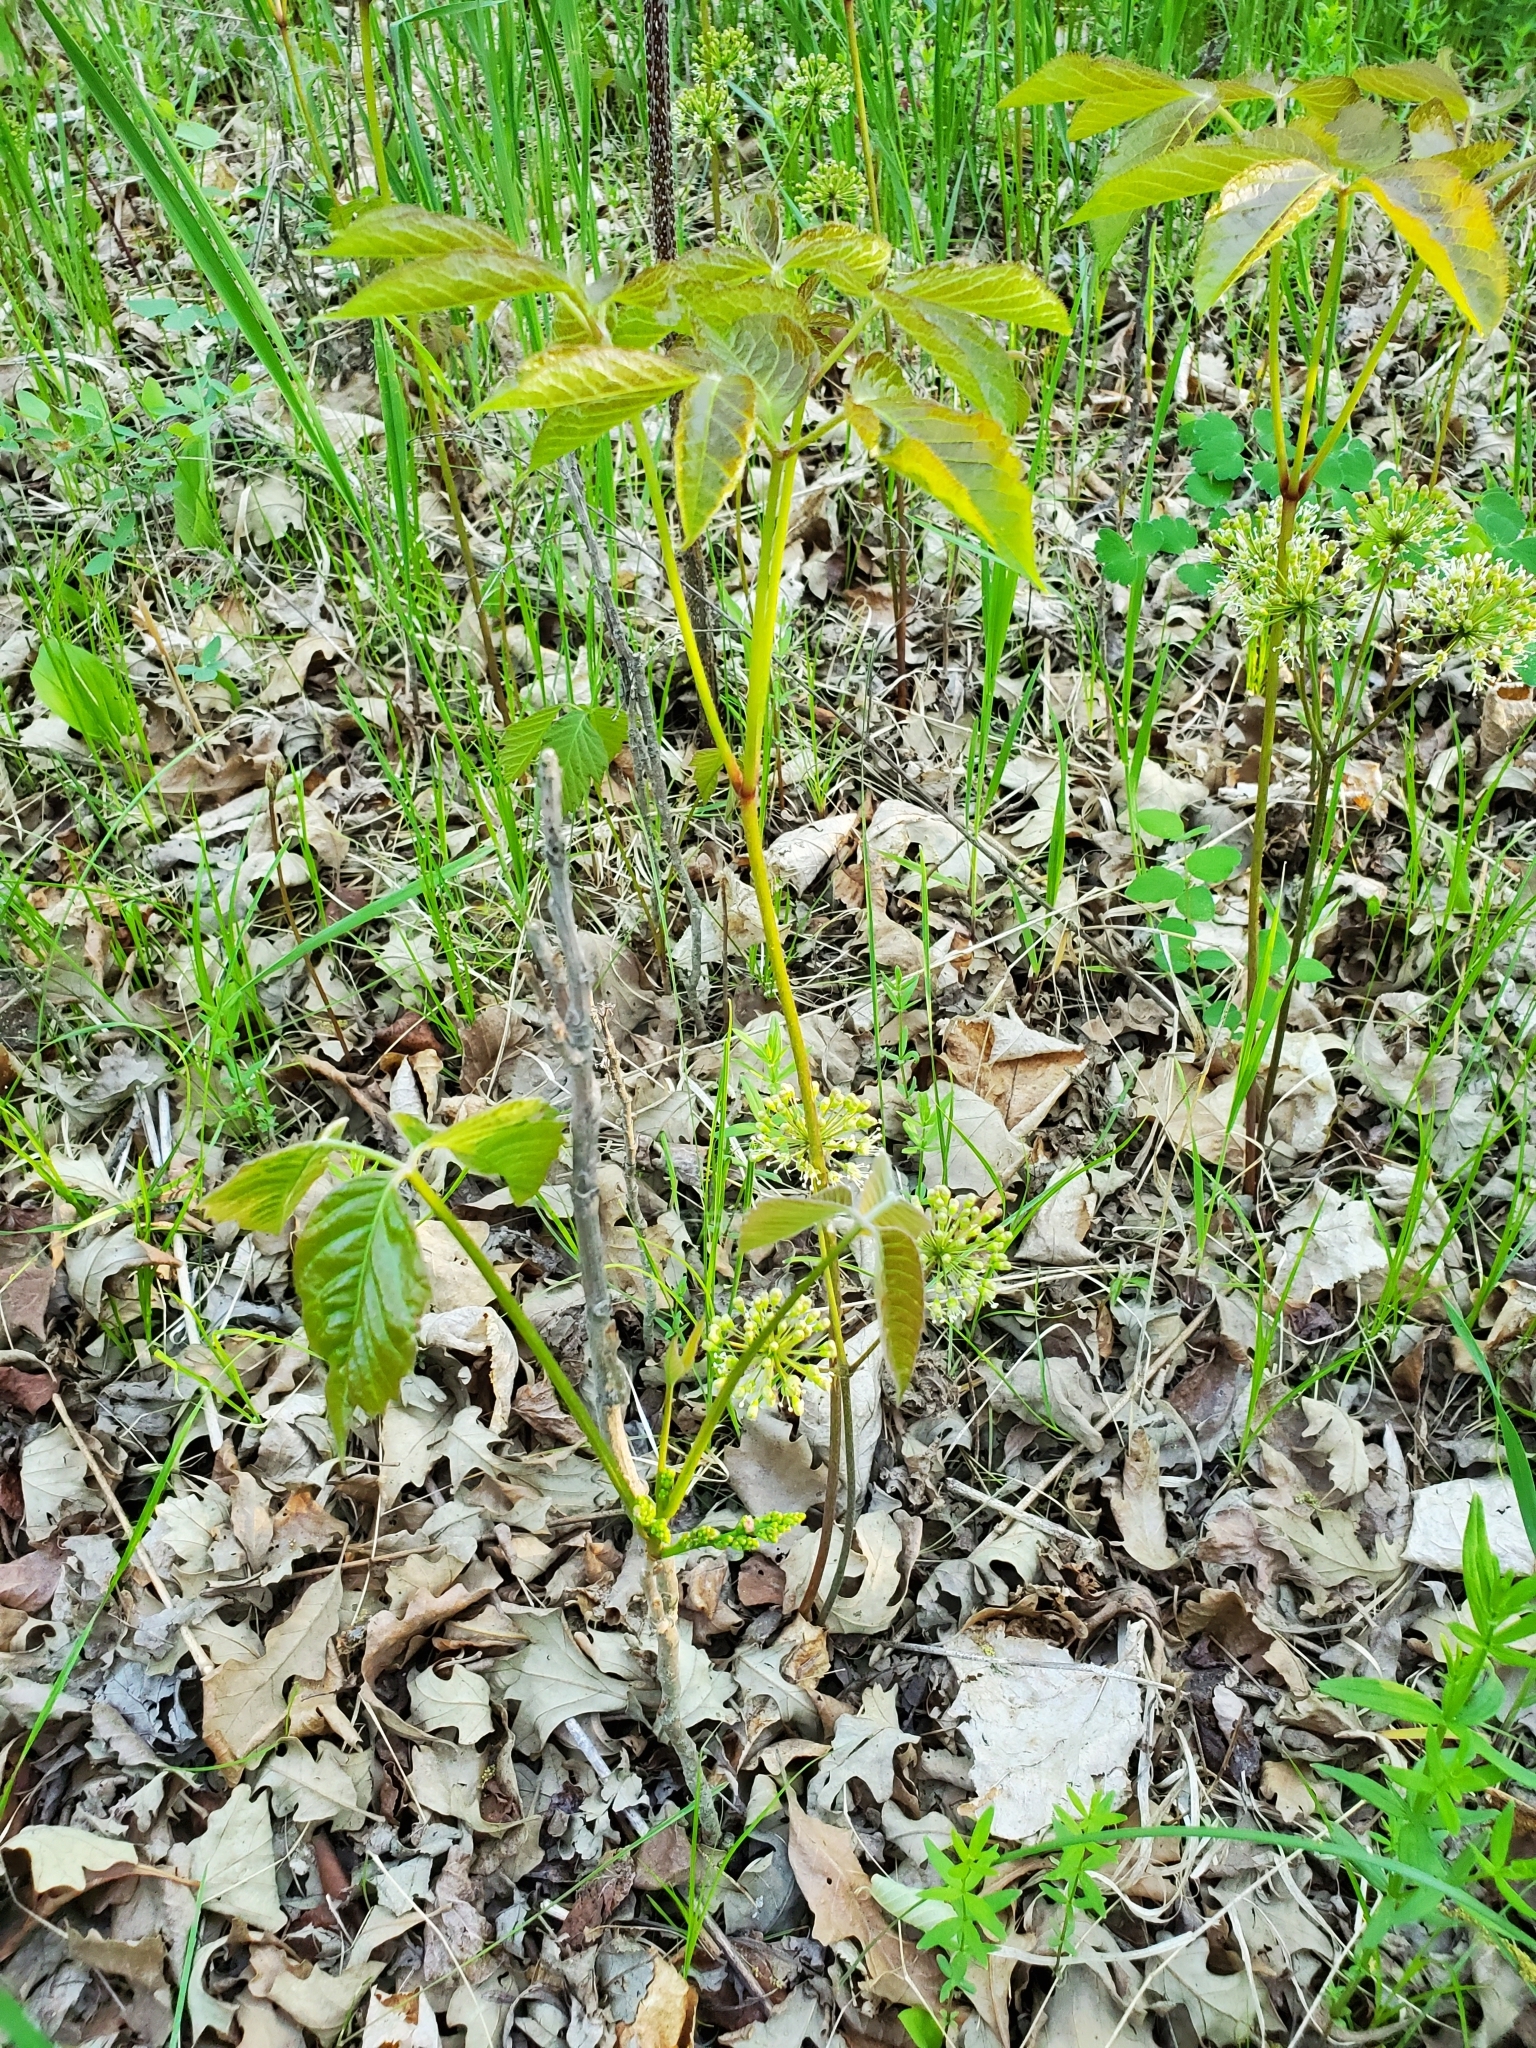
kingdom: Plantae
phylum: Tracheophyta
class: Magnoliopsida
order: Apiales
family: Araliaceae
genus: Aralia
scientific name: Aralia nudicaulis
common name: Wild sarsaparilla
